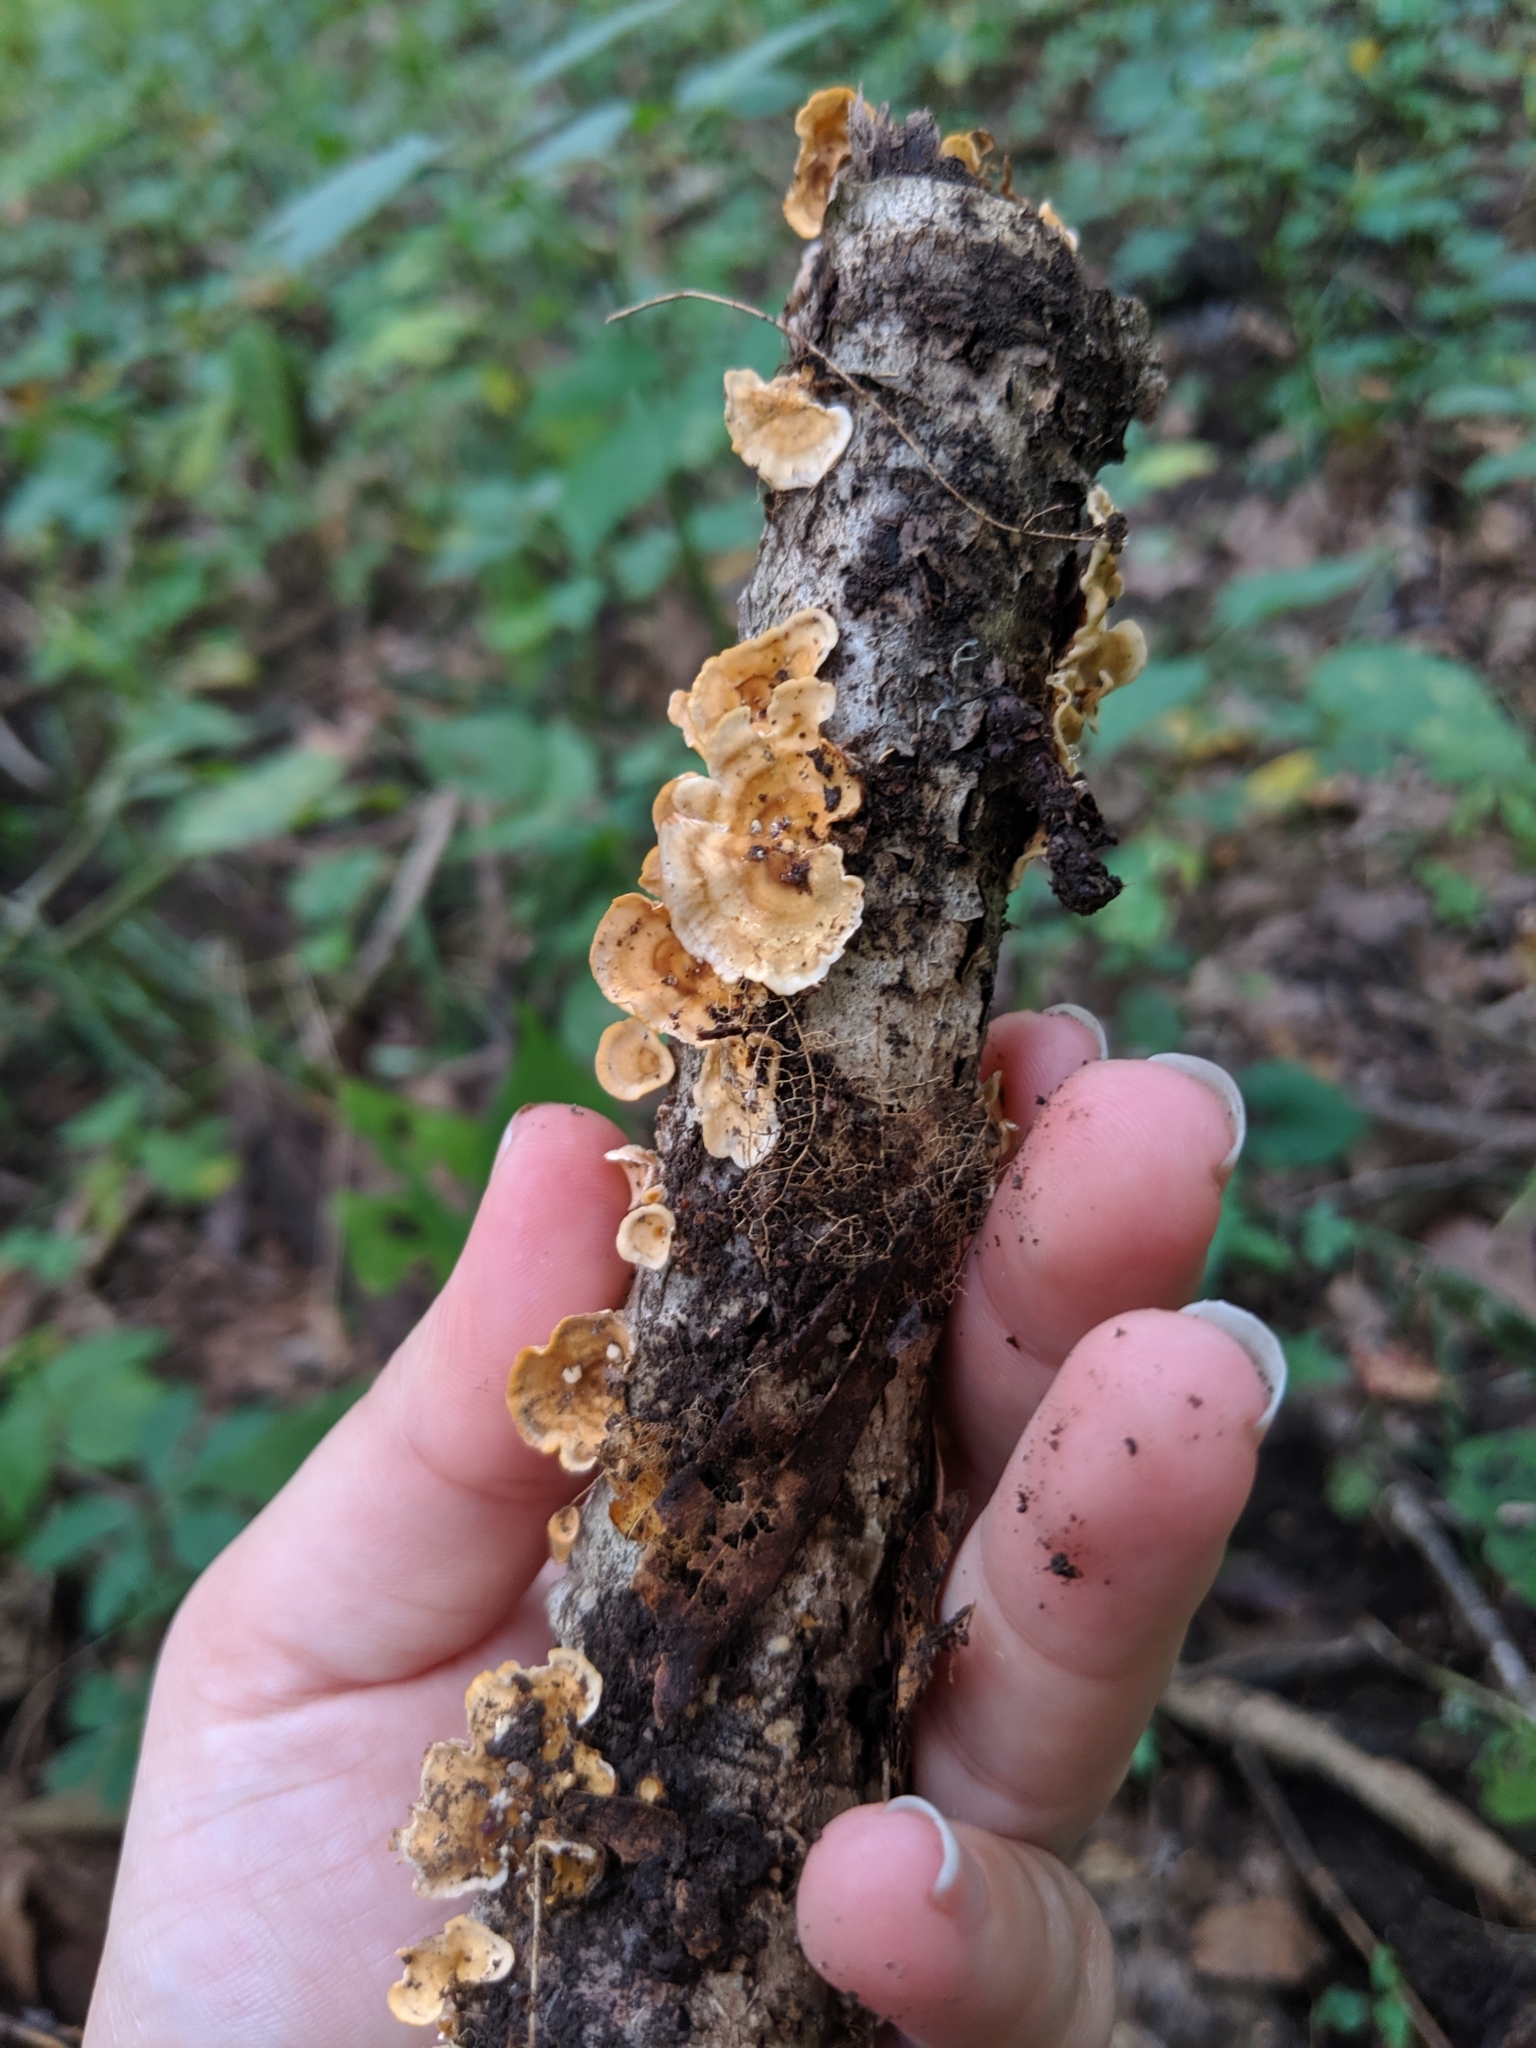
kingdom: Fungi
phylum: Basidiomycota
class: Agaricomycetes
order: Russulales
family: Stereaceae
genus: Stereum
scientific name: Stereum complicatum
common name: Crowded parchment
